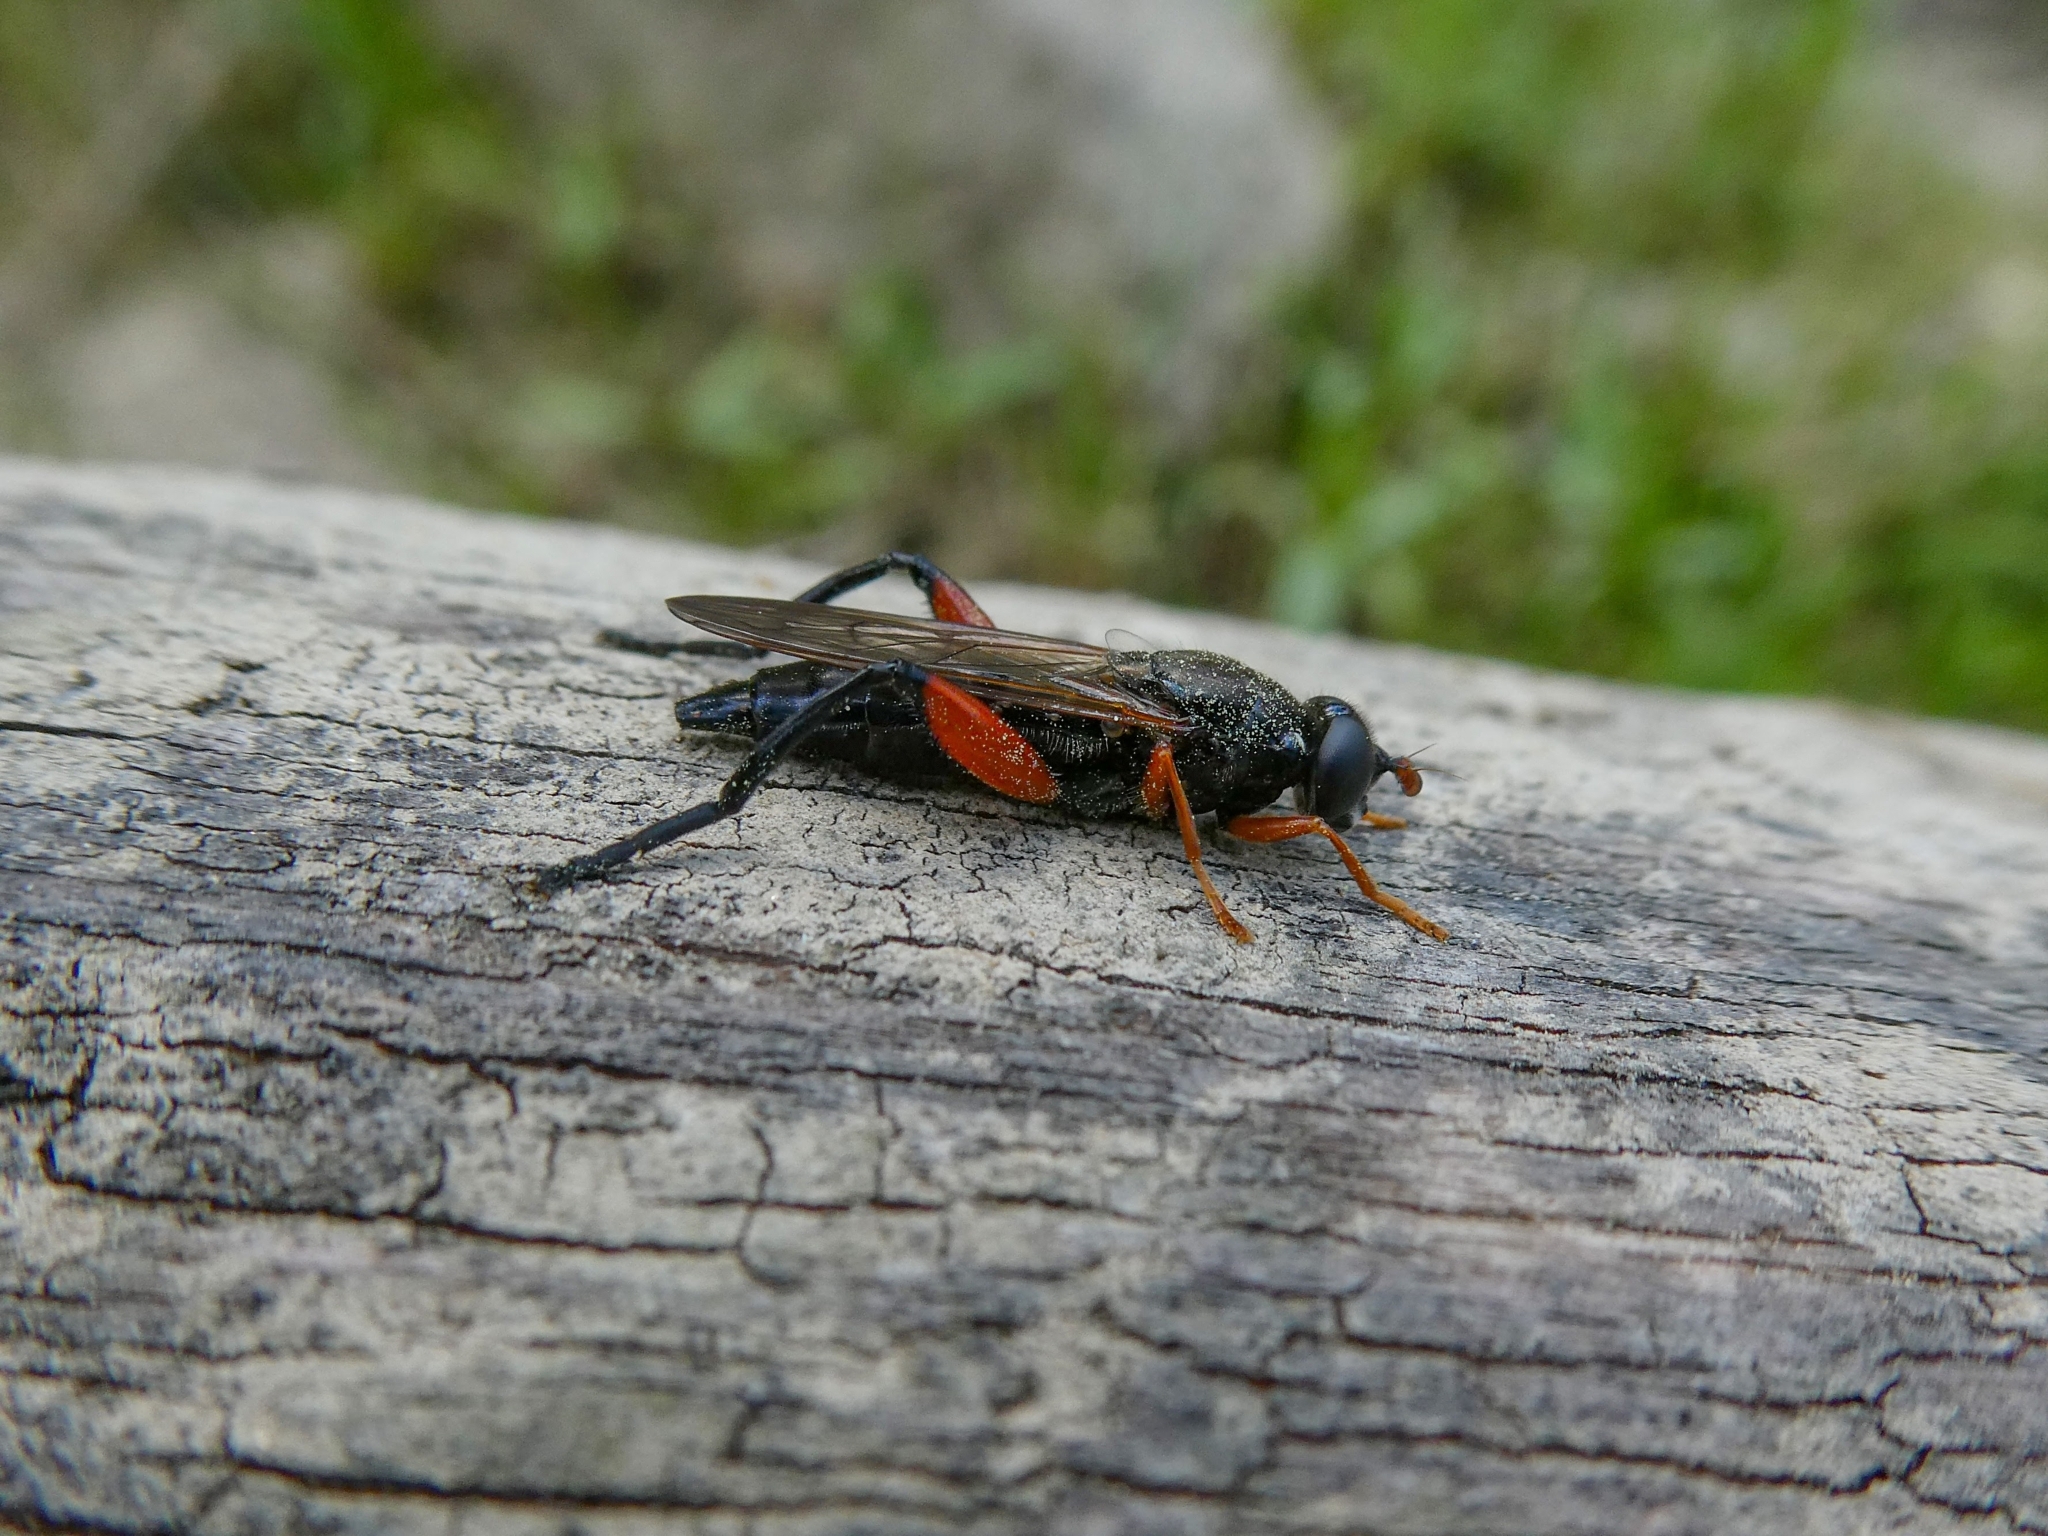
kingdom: Animalia
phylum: Arthropoda
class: Insecta
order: Diptera
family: Syrphidae
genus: Chalcosyrphus
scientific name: Chalcosyrphus femoratus
